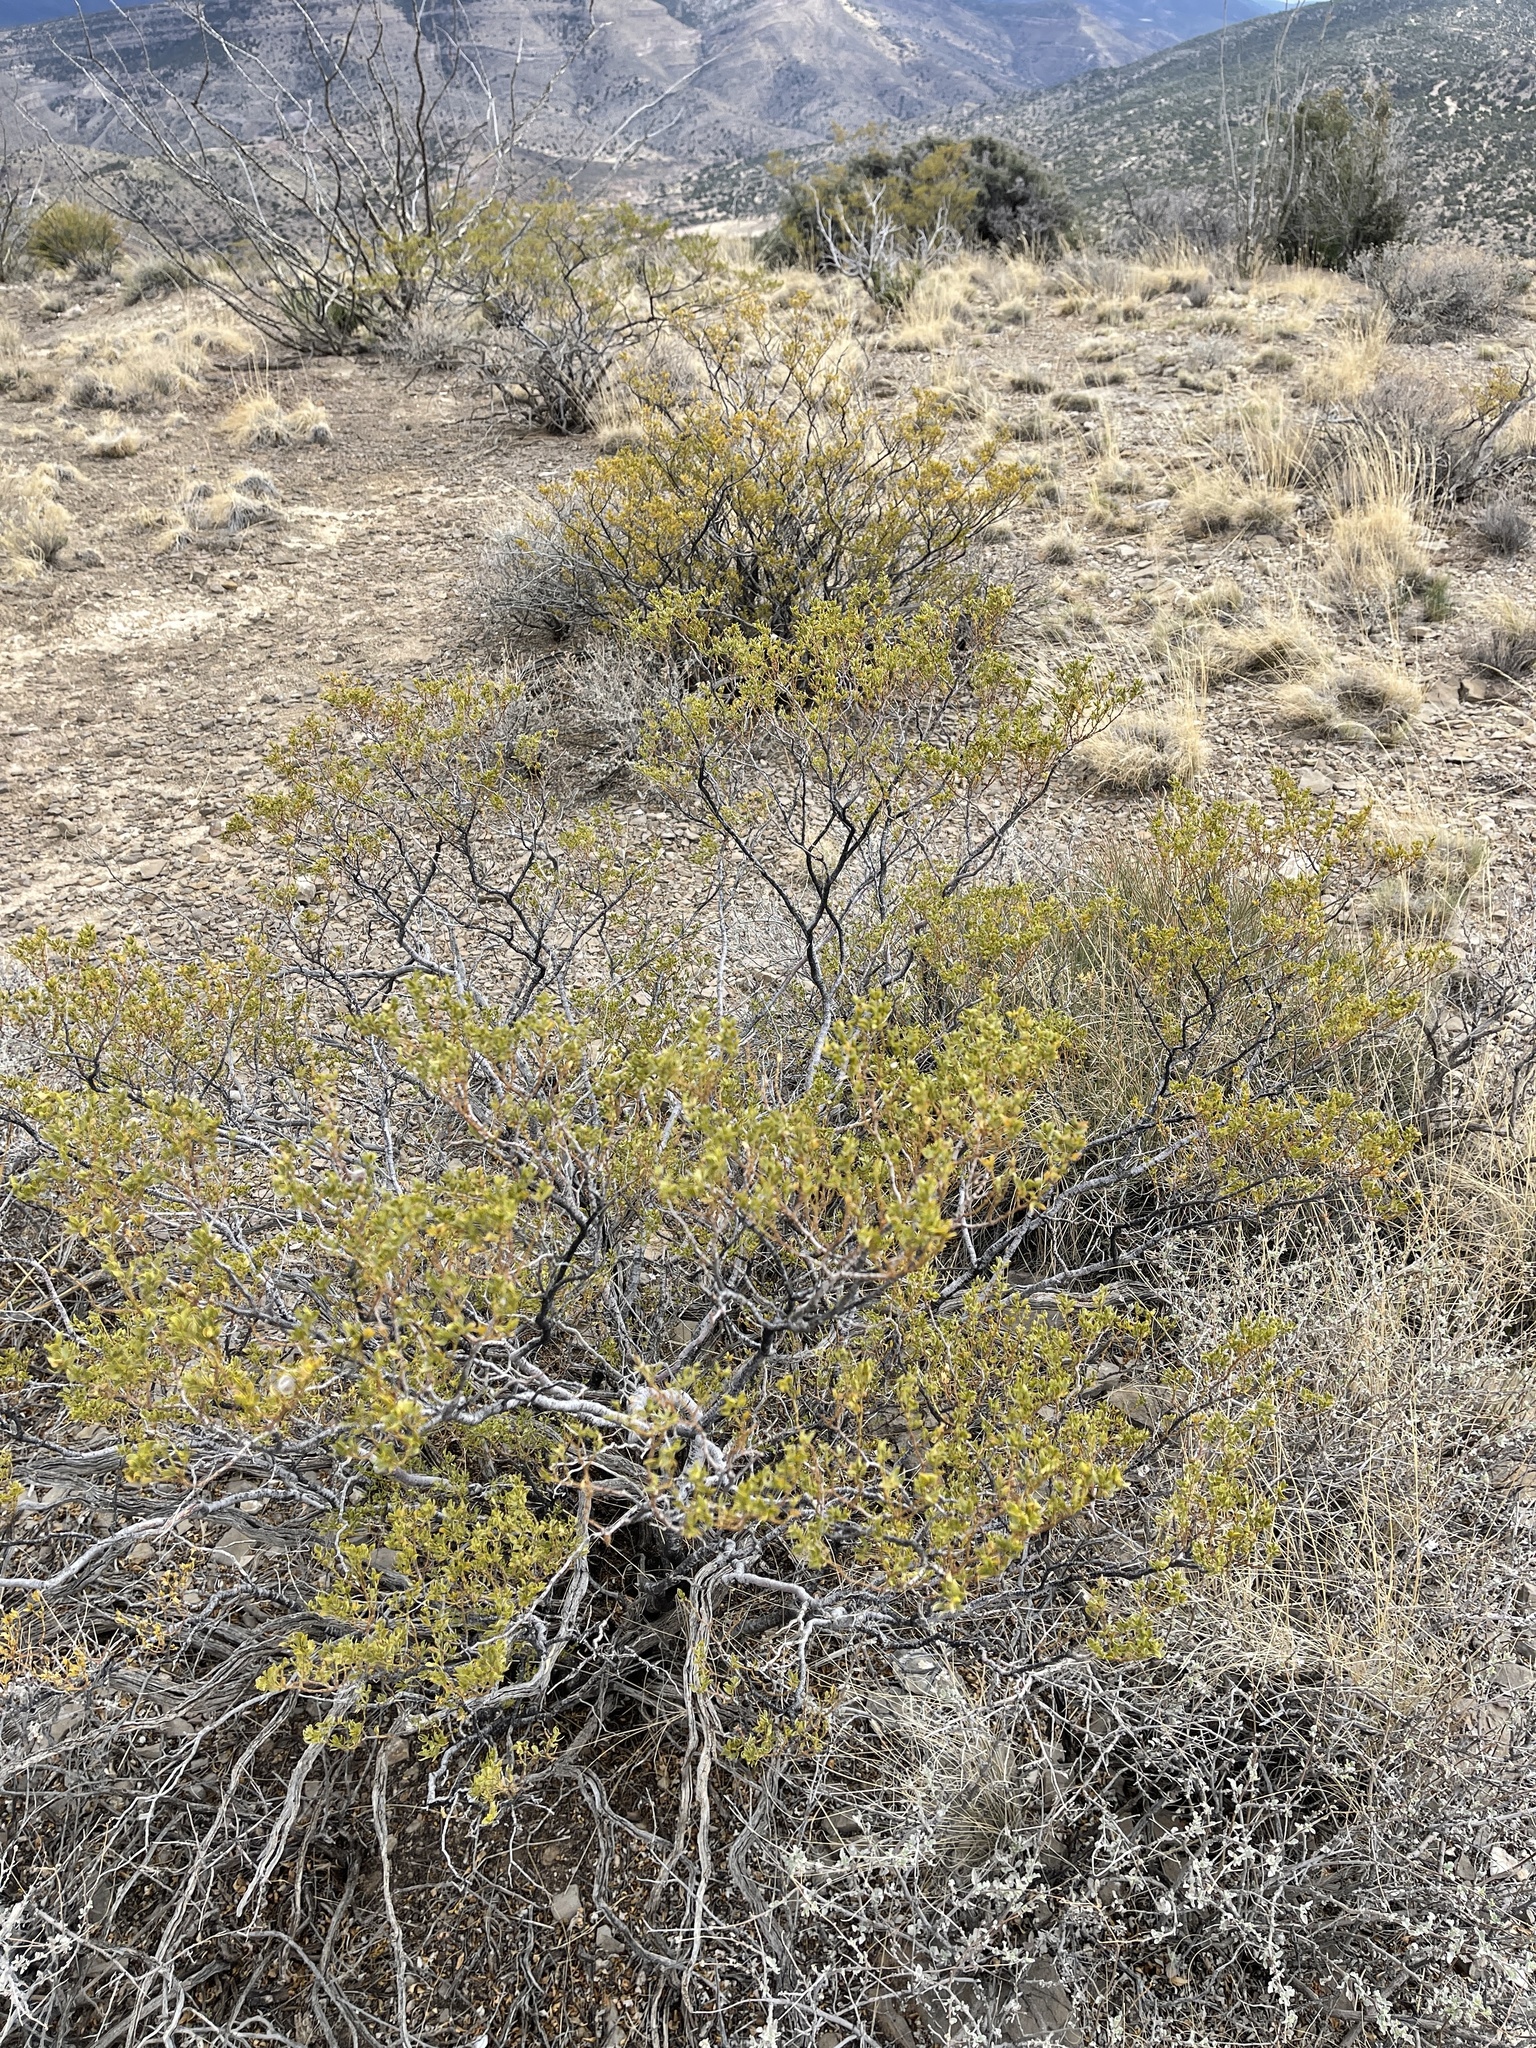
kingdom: Plantae
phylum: Tracheophyta
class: Magnoliopsida
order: Zygophyllales
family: Zygophyllaceae
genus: Larrea
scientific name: Larrea tridentata
